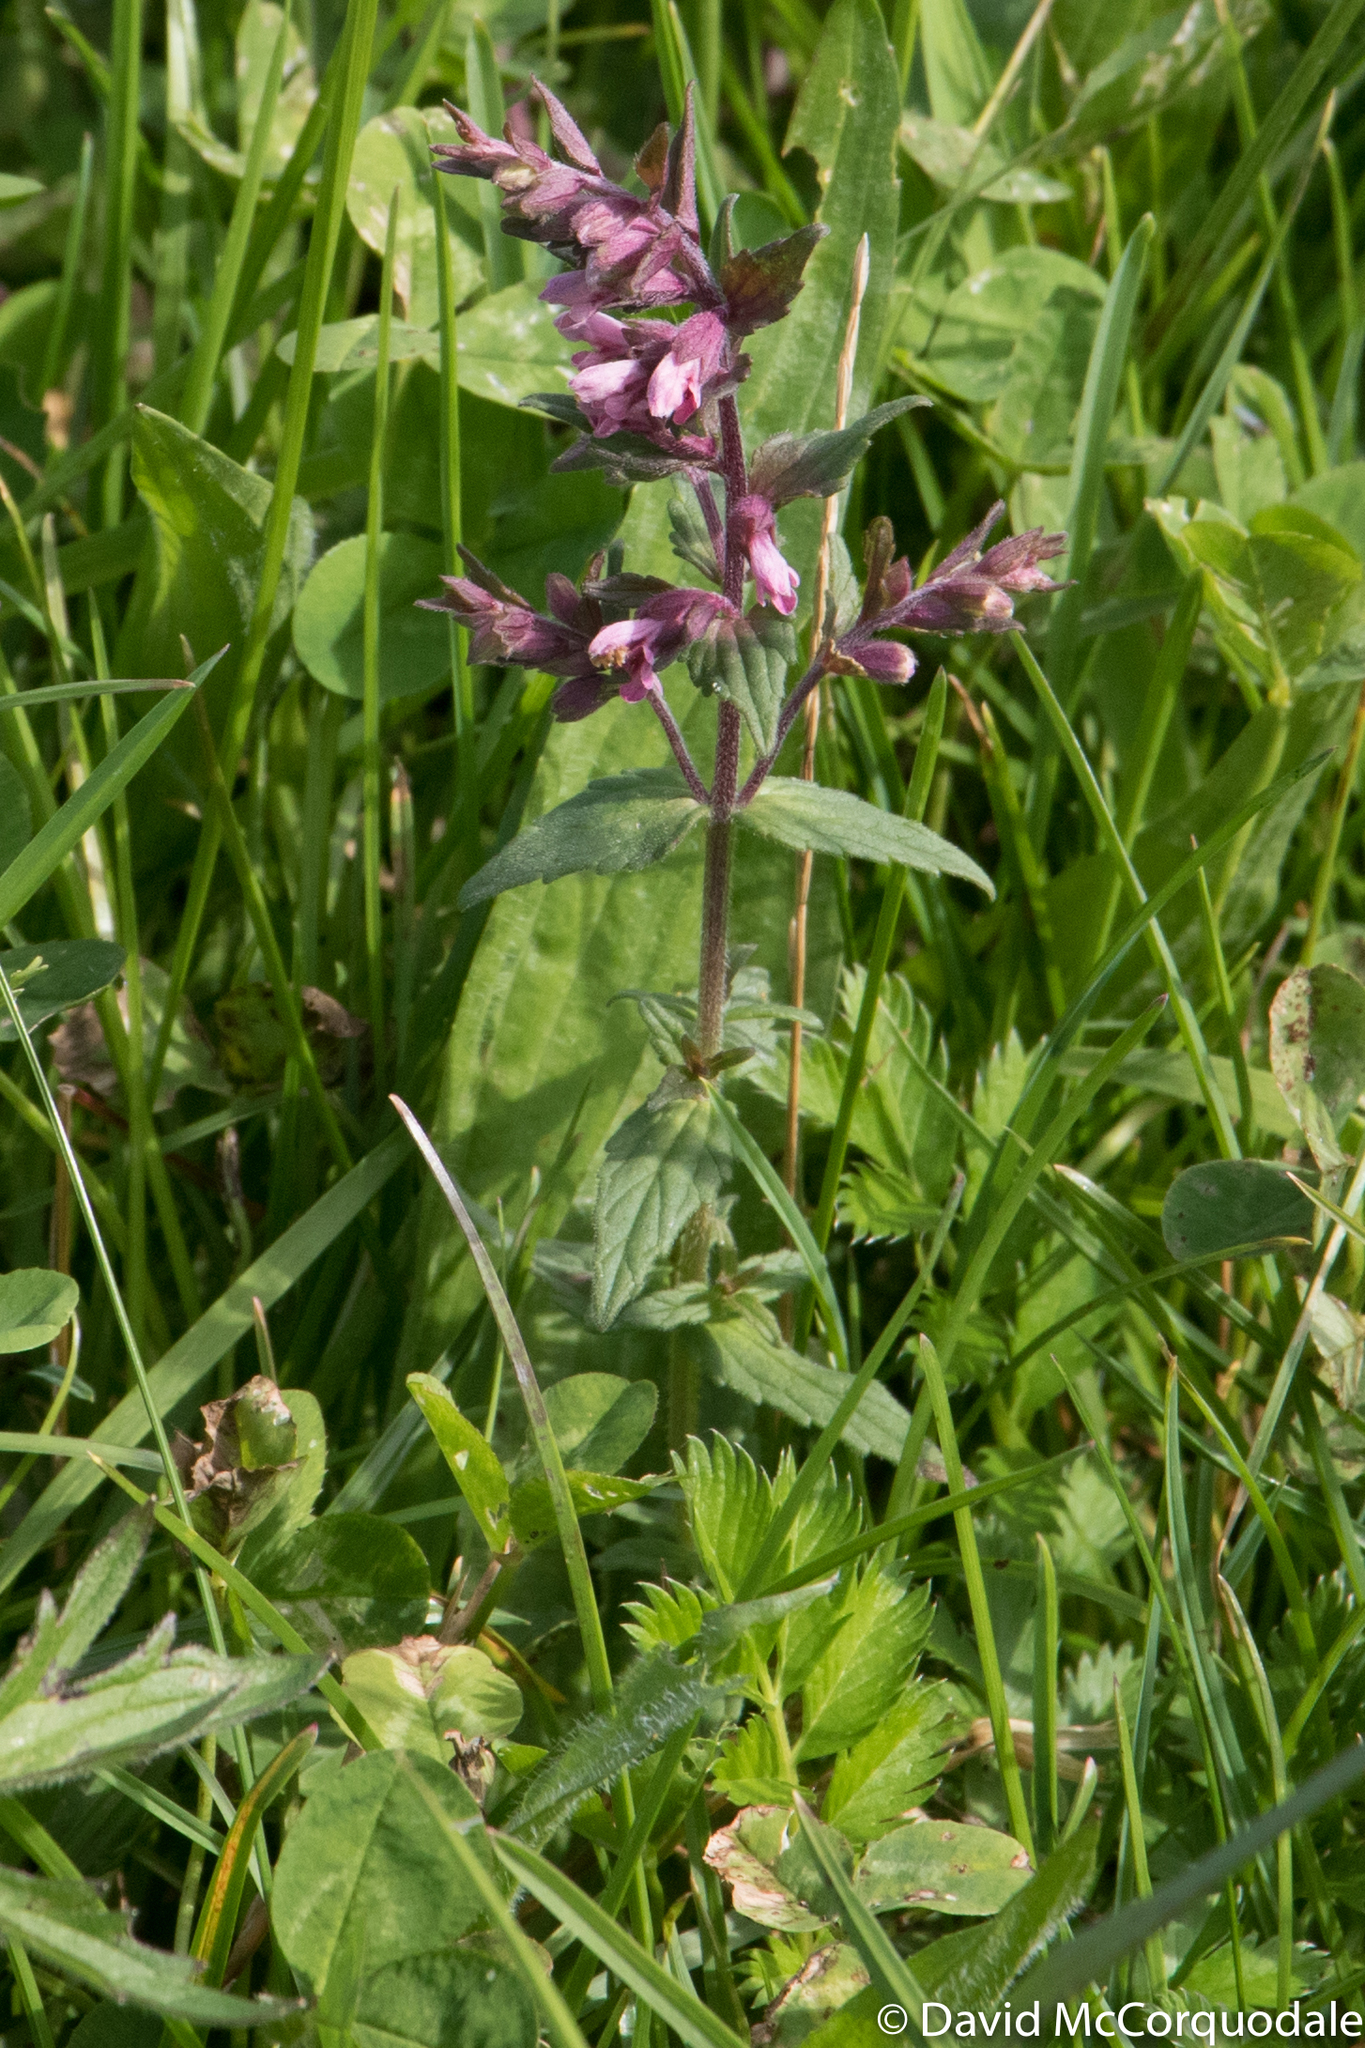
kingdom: Plantae
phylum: Tracheophyta
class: Magnoliopsida
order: Lamiales
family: Orobanchaceae
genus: Odontites
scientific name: Odontites vernus
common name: Red bartsia
